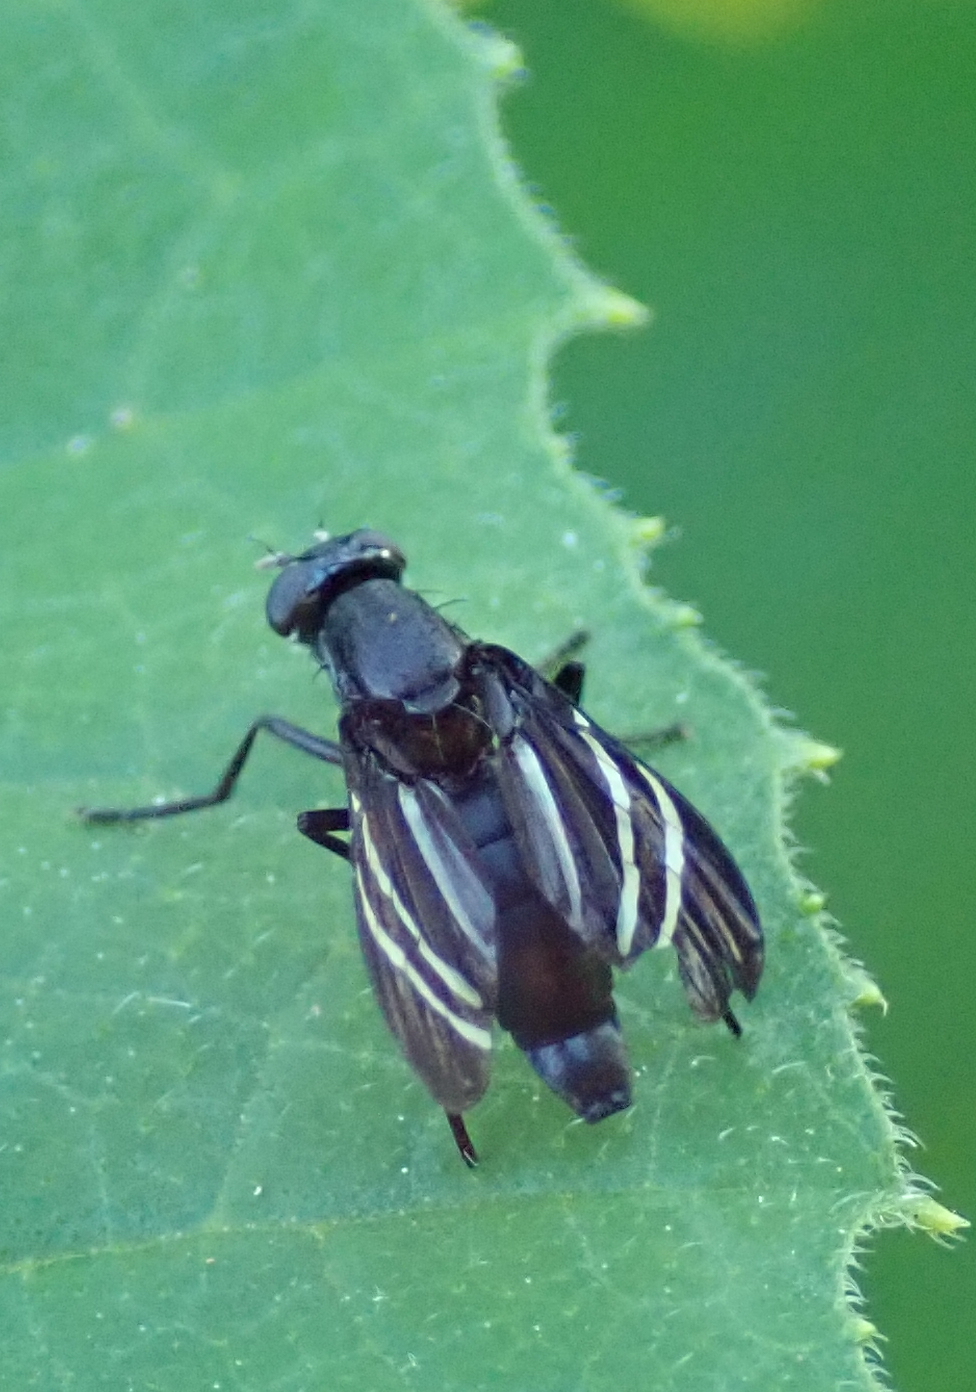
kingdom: Animalia
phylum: Arthropoda
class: Insecta
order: Diptera
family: Ulidiidae
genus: Tritoxa
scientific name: Tritoxa flexa
